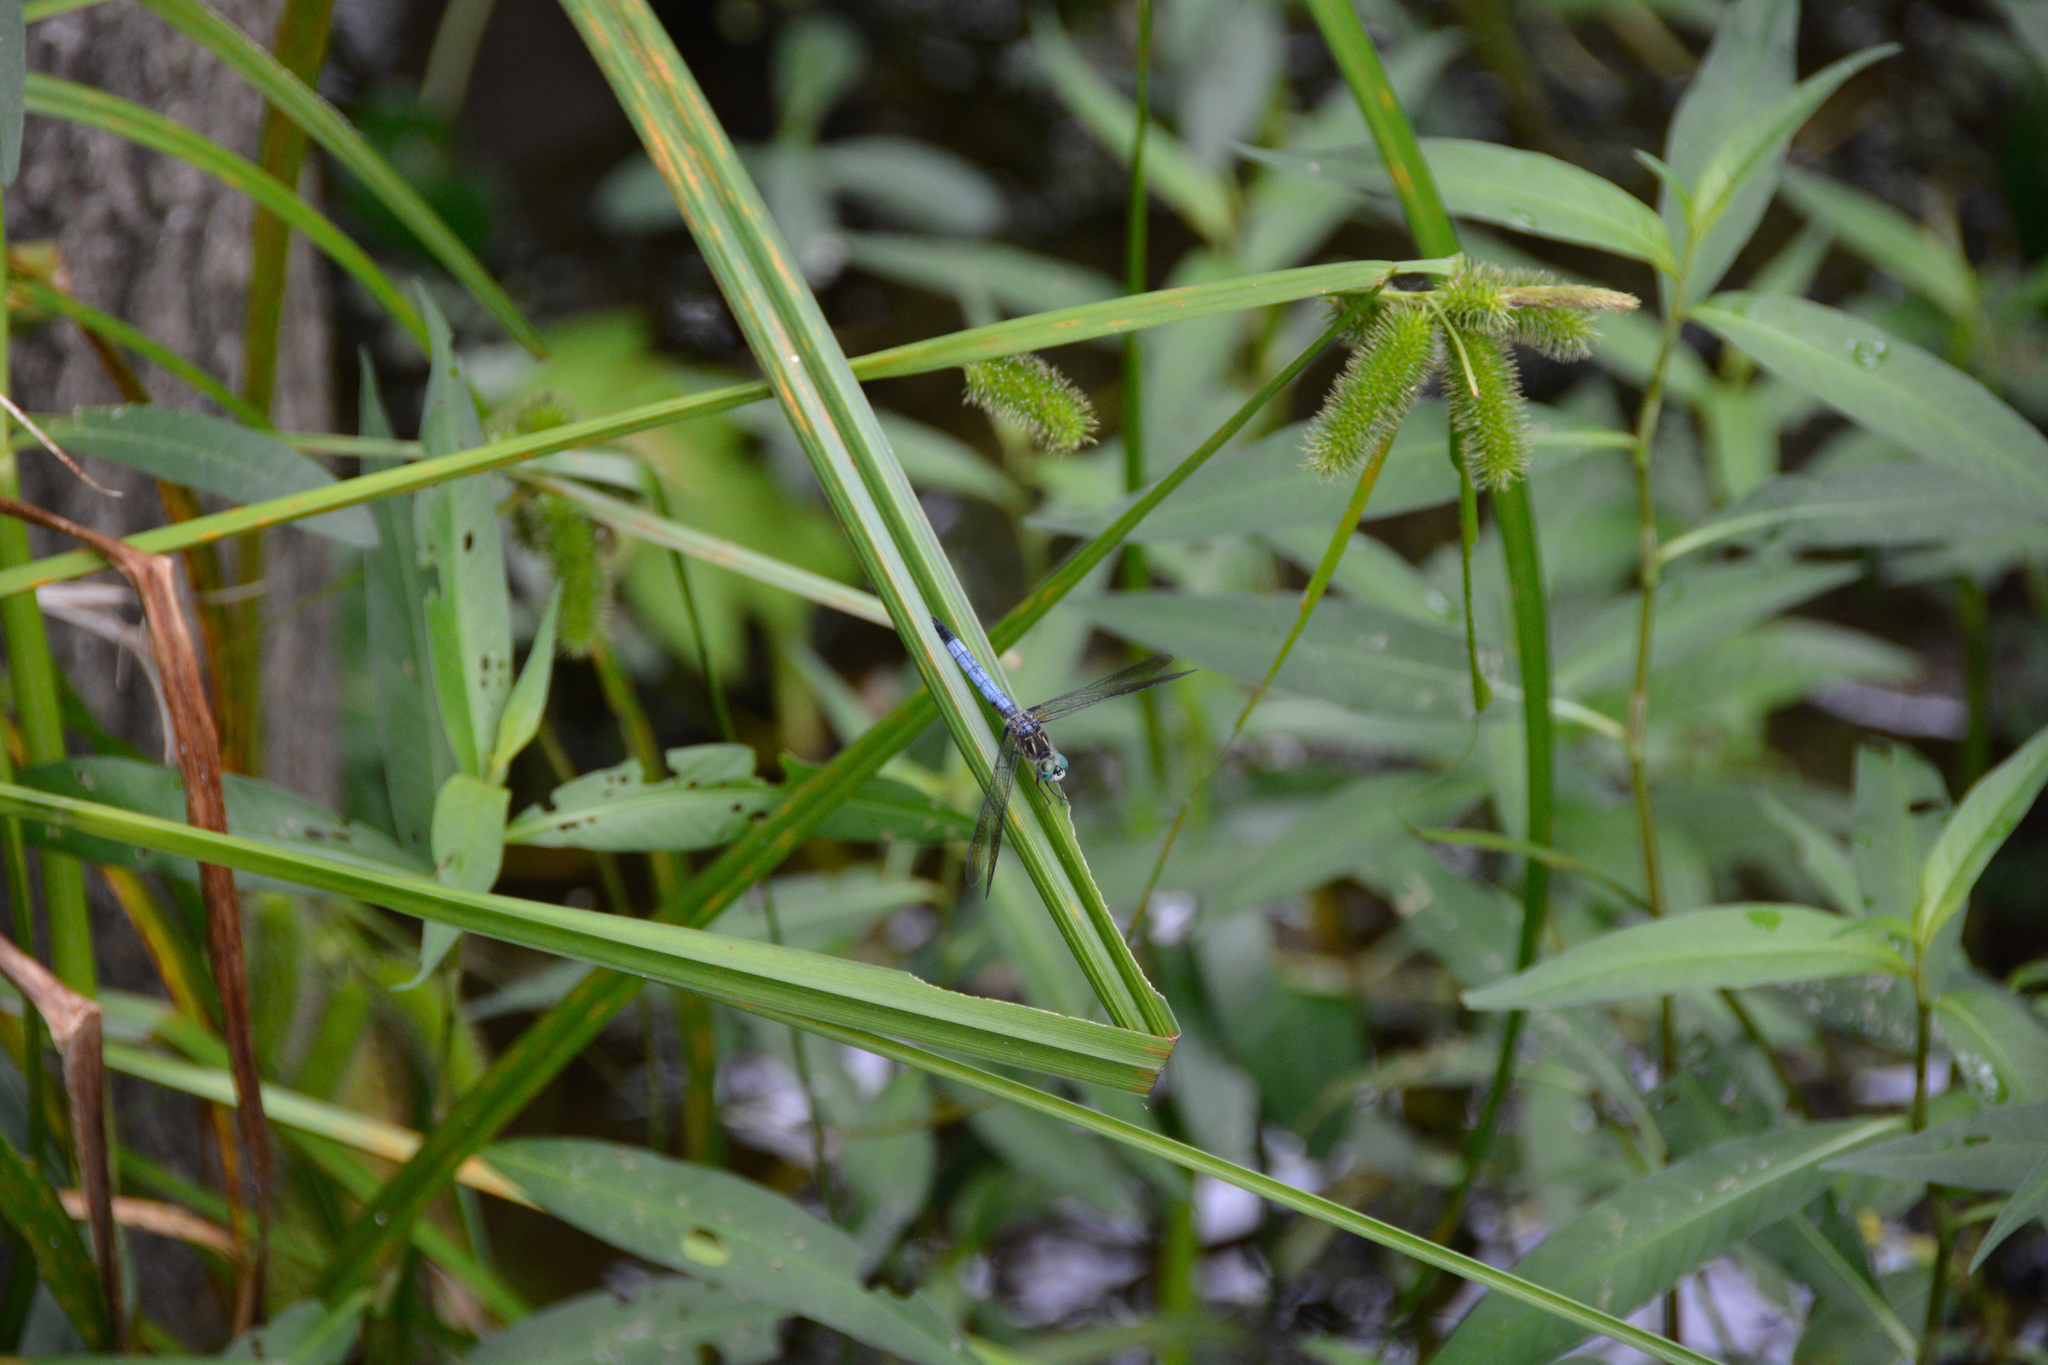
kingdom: Animalia
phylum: Arthropoda
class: Insecta
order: Odonata
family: Libellulidae
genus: Pachydiplax
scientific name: Pachydiplax longipennis
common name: Blue dasher
